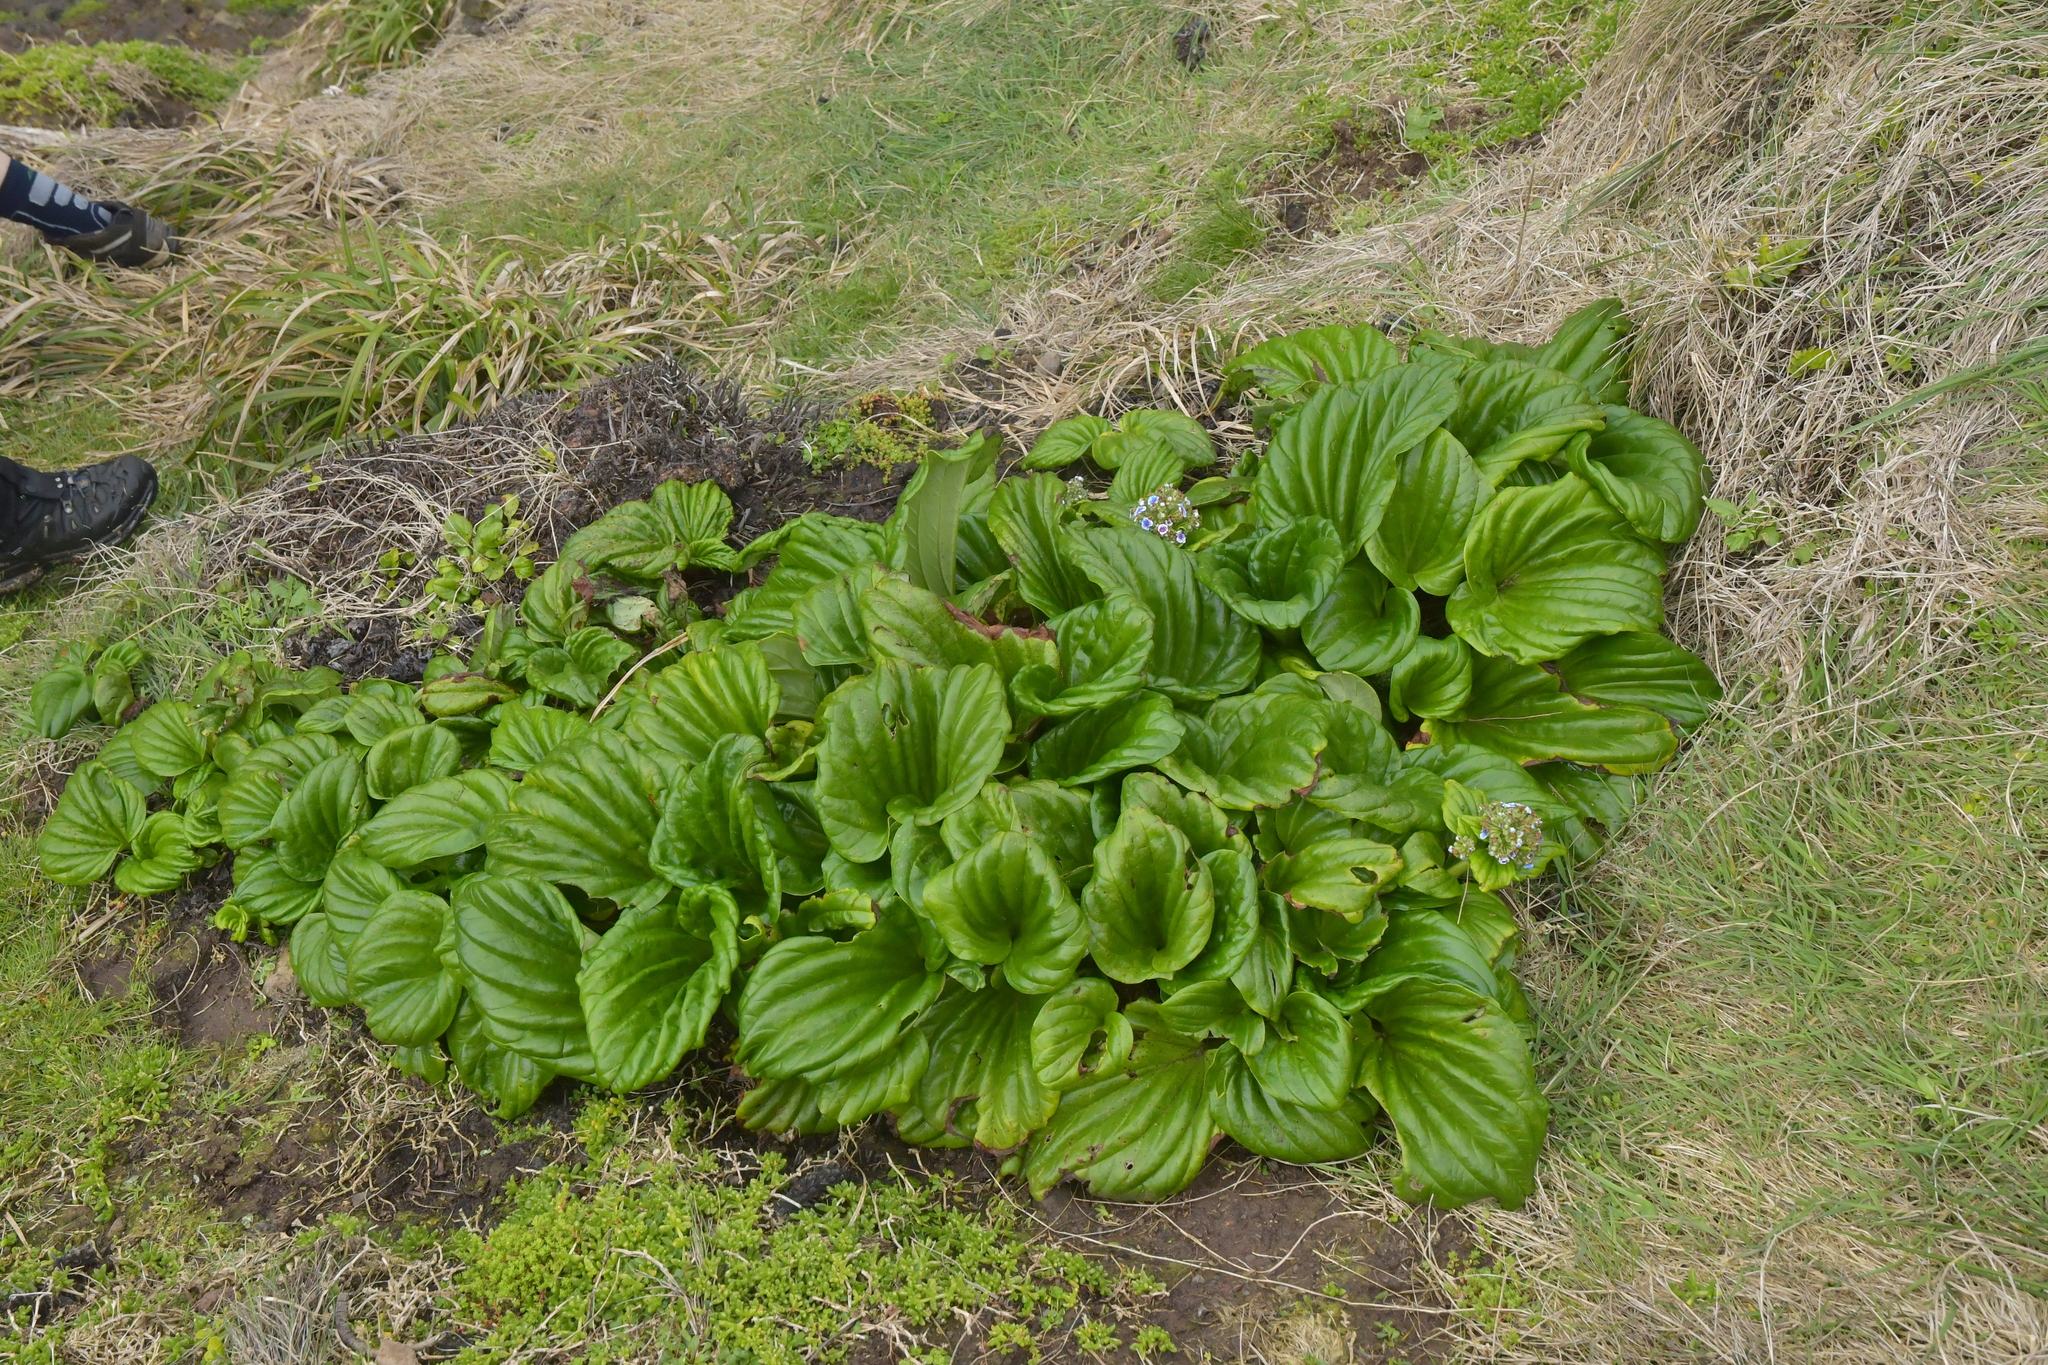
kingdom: Plantae
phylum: Tracheophyta
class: Magnoliopsida
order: Boraginales
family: Boraginaceae
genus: Myosotidium
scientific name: Myosotidium hortensia
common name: Giant forget-me-not
